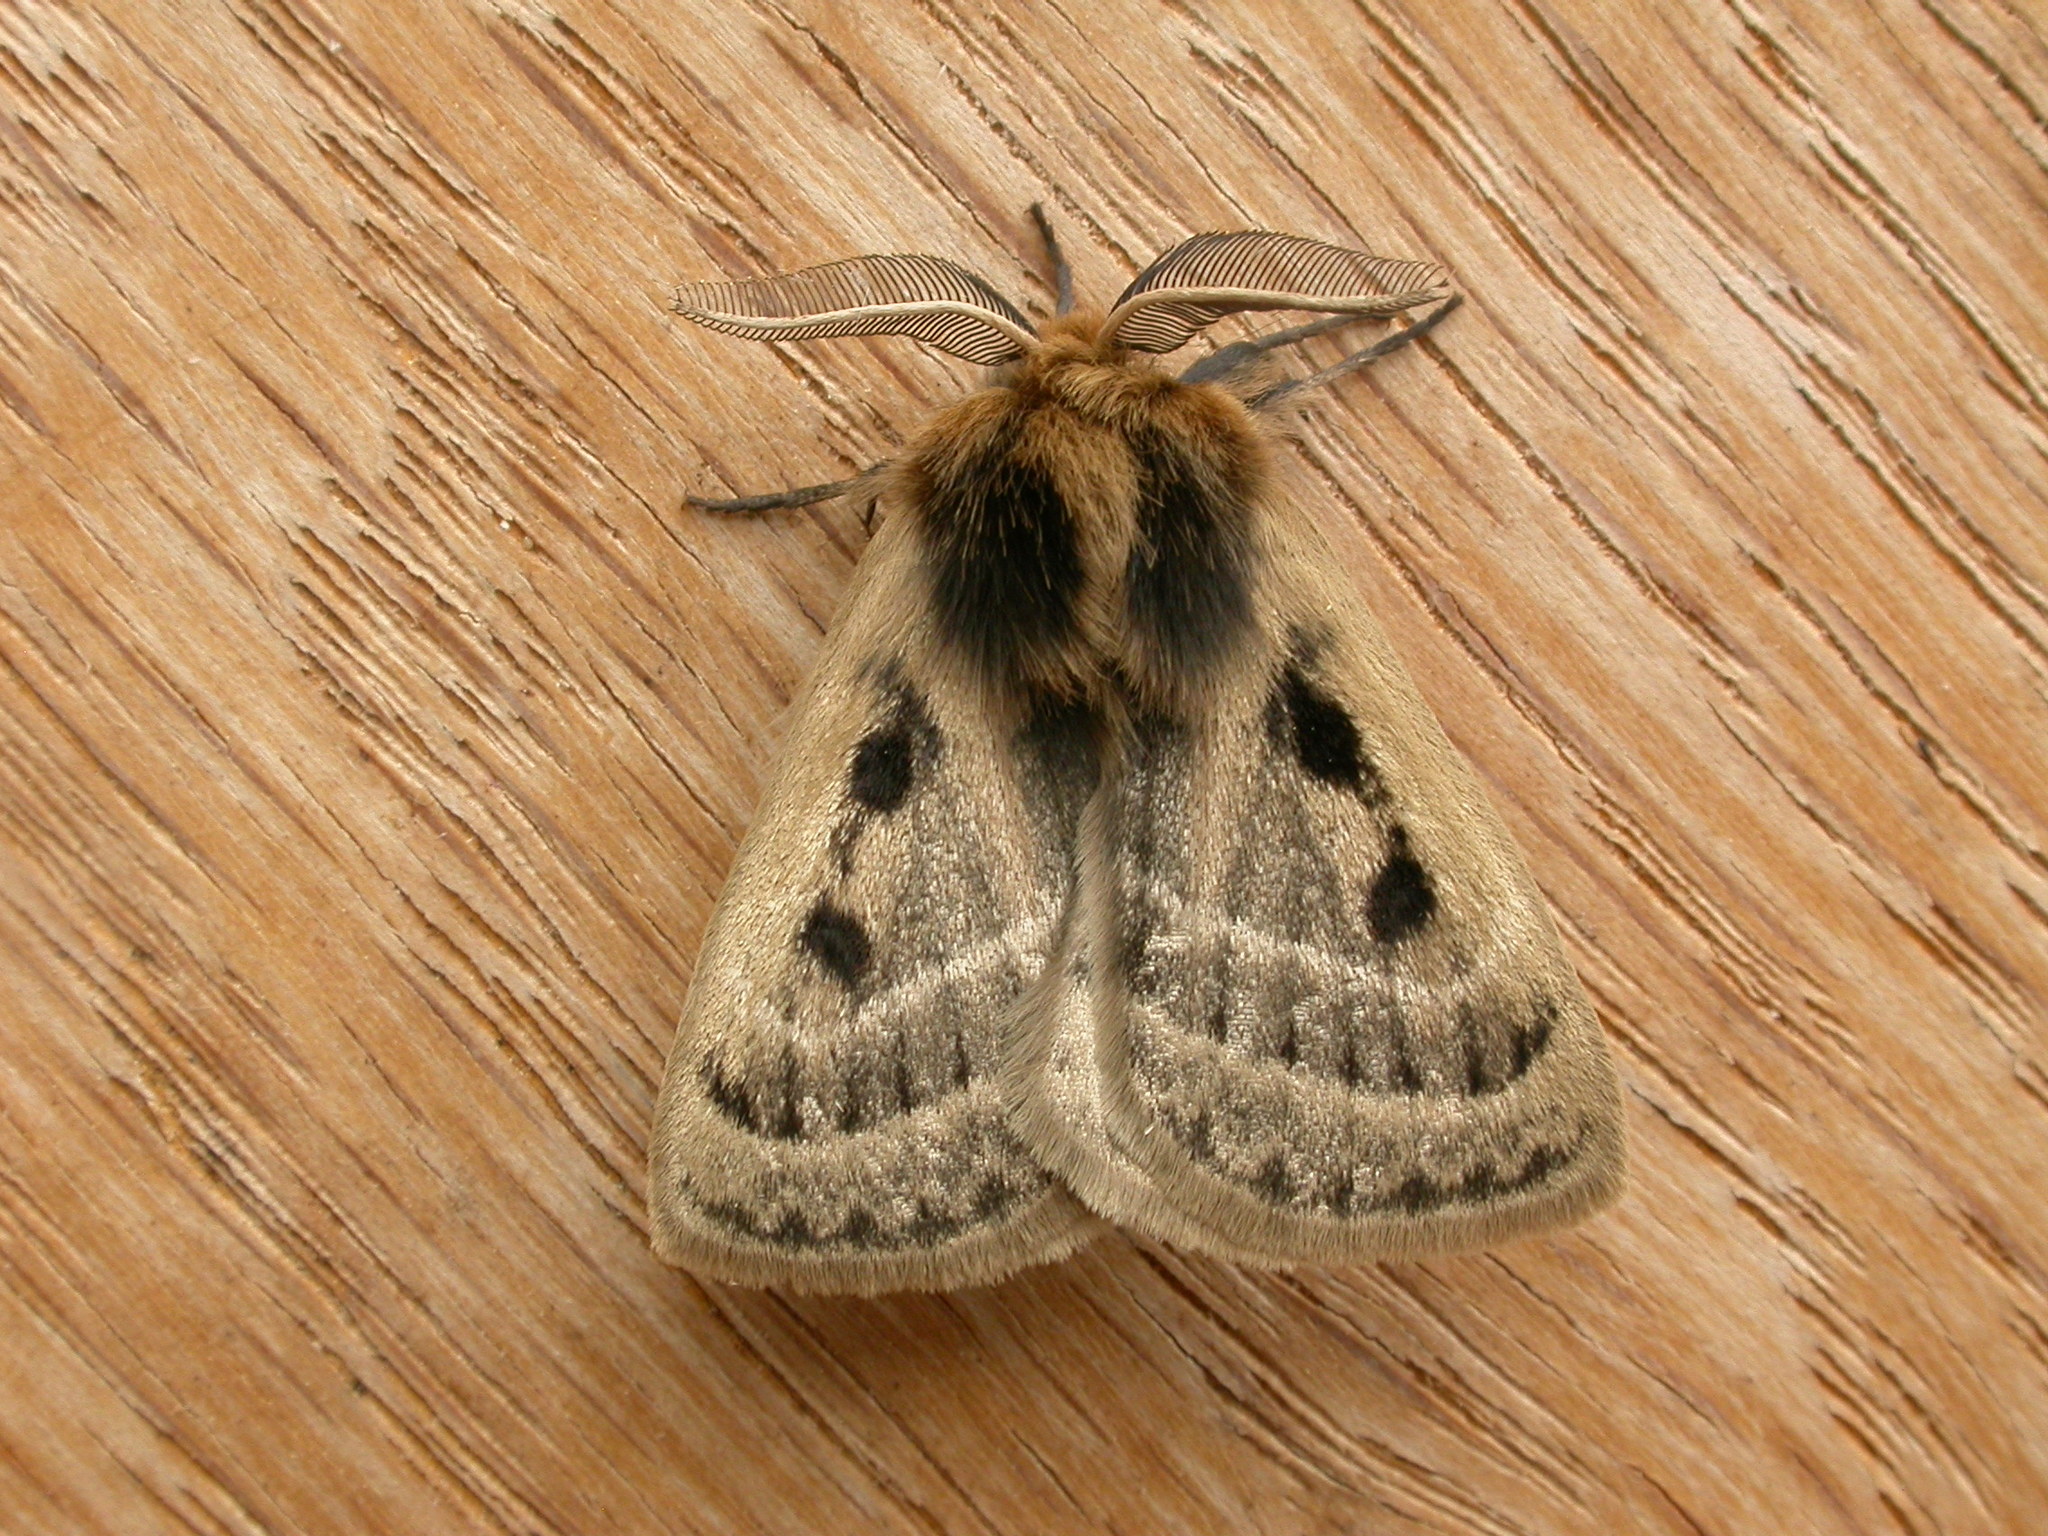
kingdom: Animalia
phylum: Arthropoda
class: Insecta
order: Lepidoptera
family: Anthelidae
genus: Anthela
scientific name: Anthela ocellata
